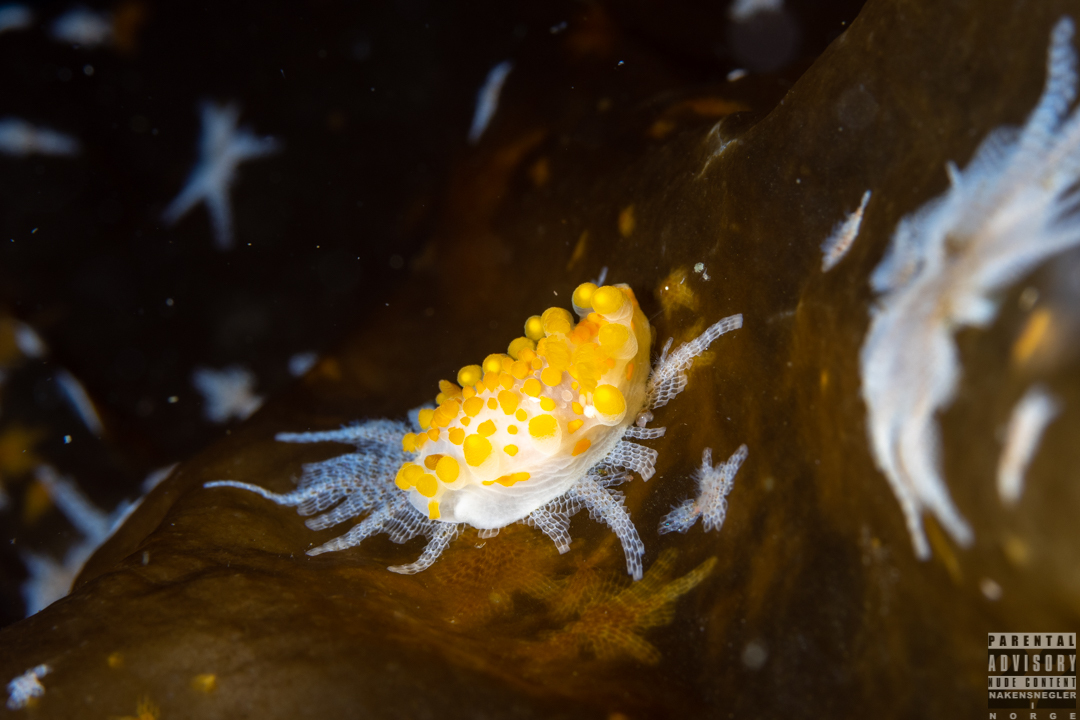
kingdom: Animalia
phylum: Mollusca
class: Gastropoda
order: Nudibranchia
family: Polyceridae
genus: Limacia
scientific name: Limacia clavigera
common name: Orange-clubbed sea slug
